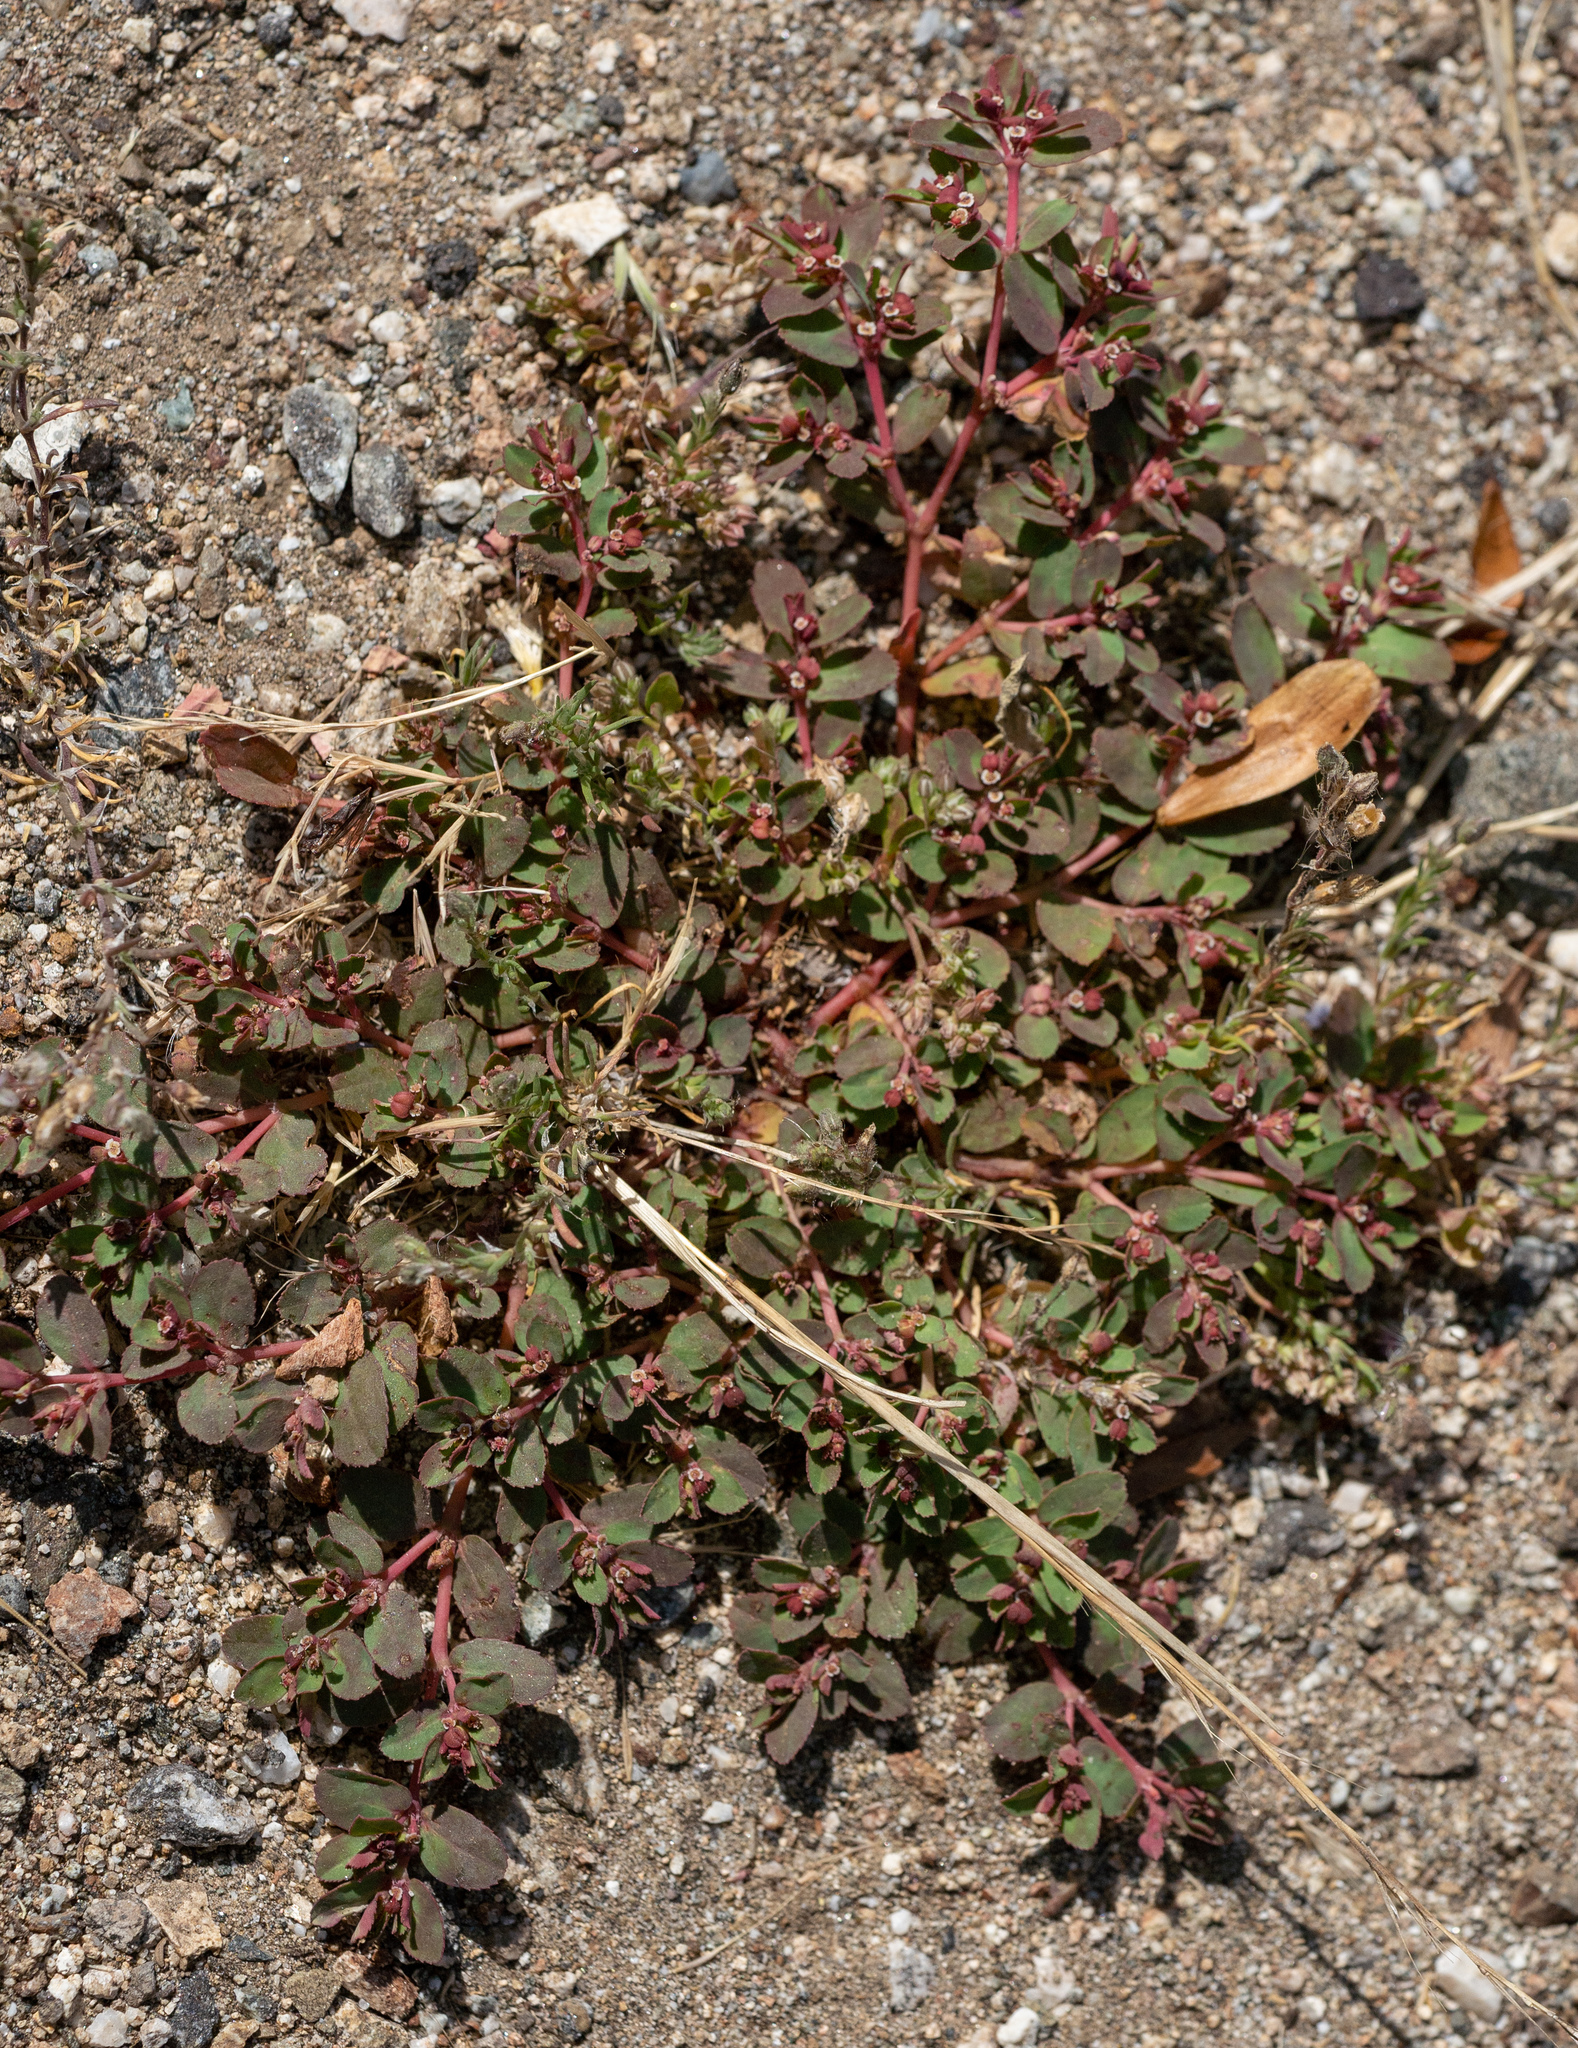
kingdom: Plantae
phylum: Tracheophyta
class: Magnoliopsida
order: Malpighiales
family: Euphorbiaceae
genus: Euphorbia
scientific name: Euphorbia serpillifolia
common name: Thyme-leaf spurge
